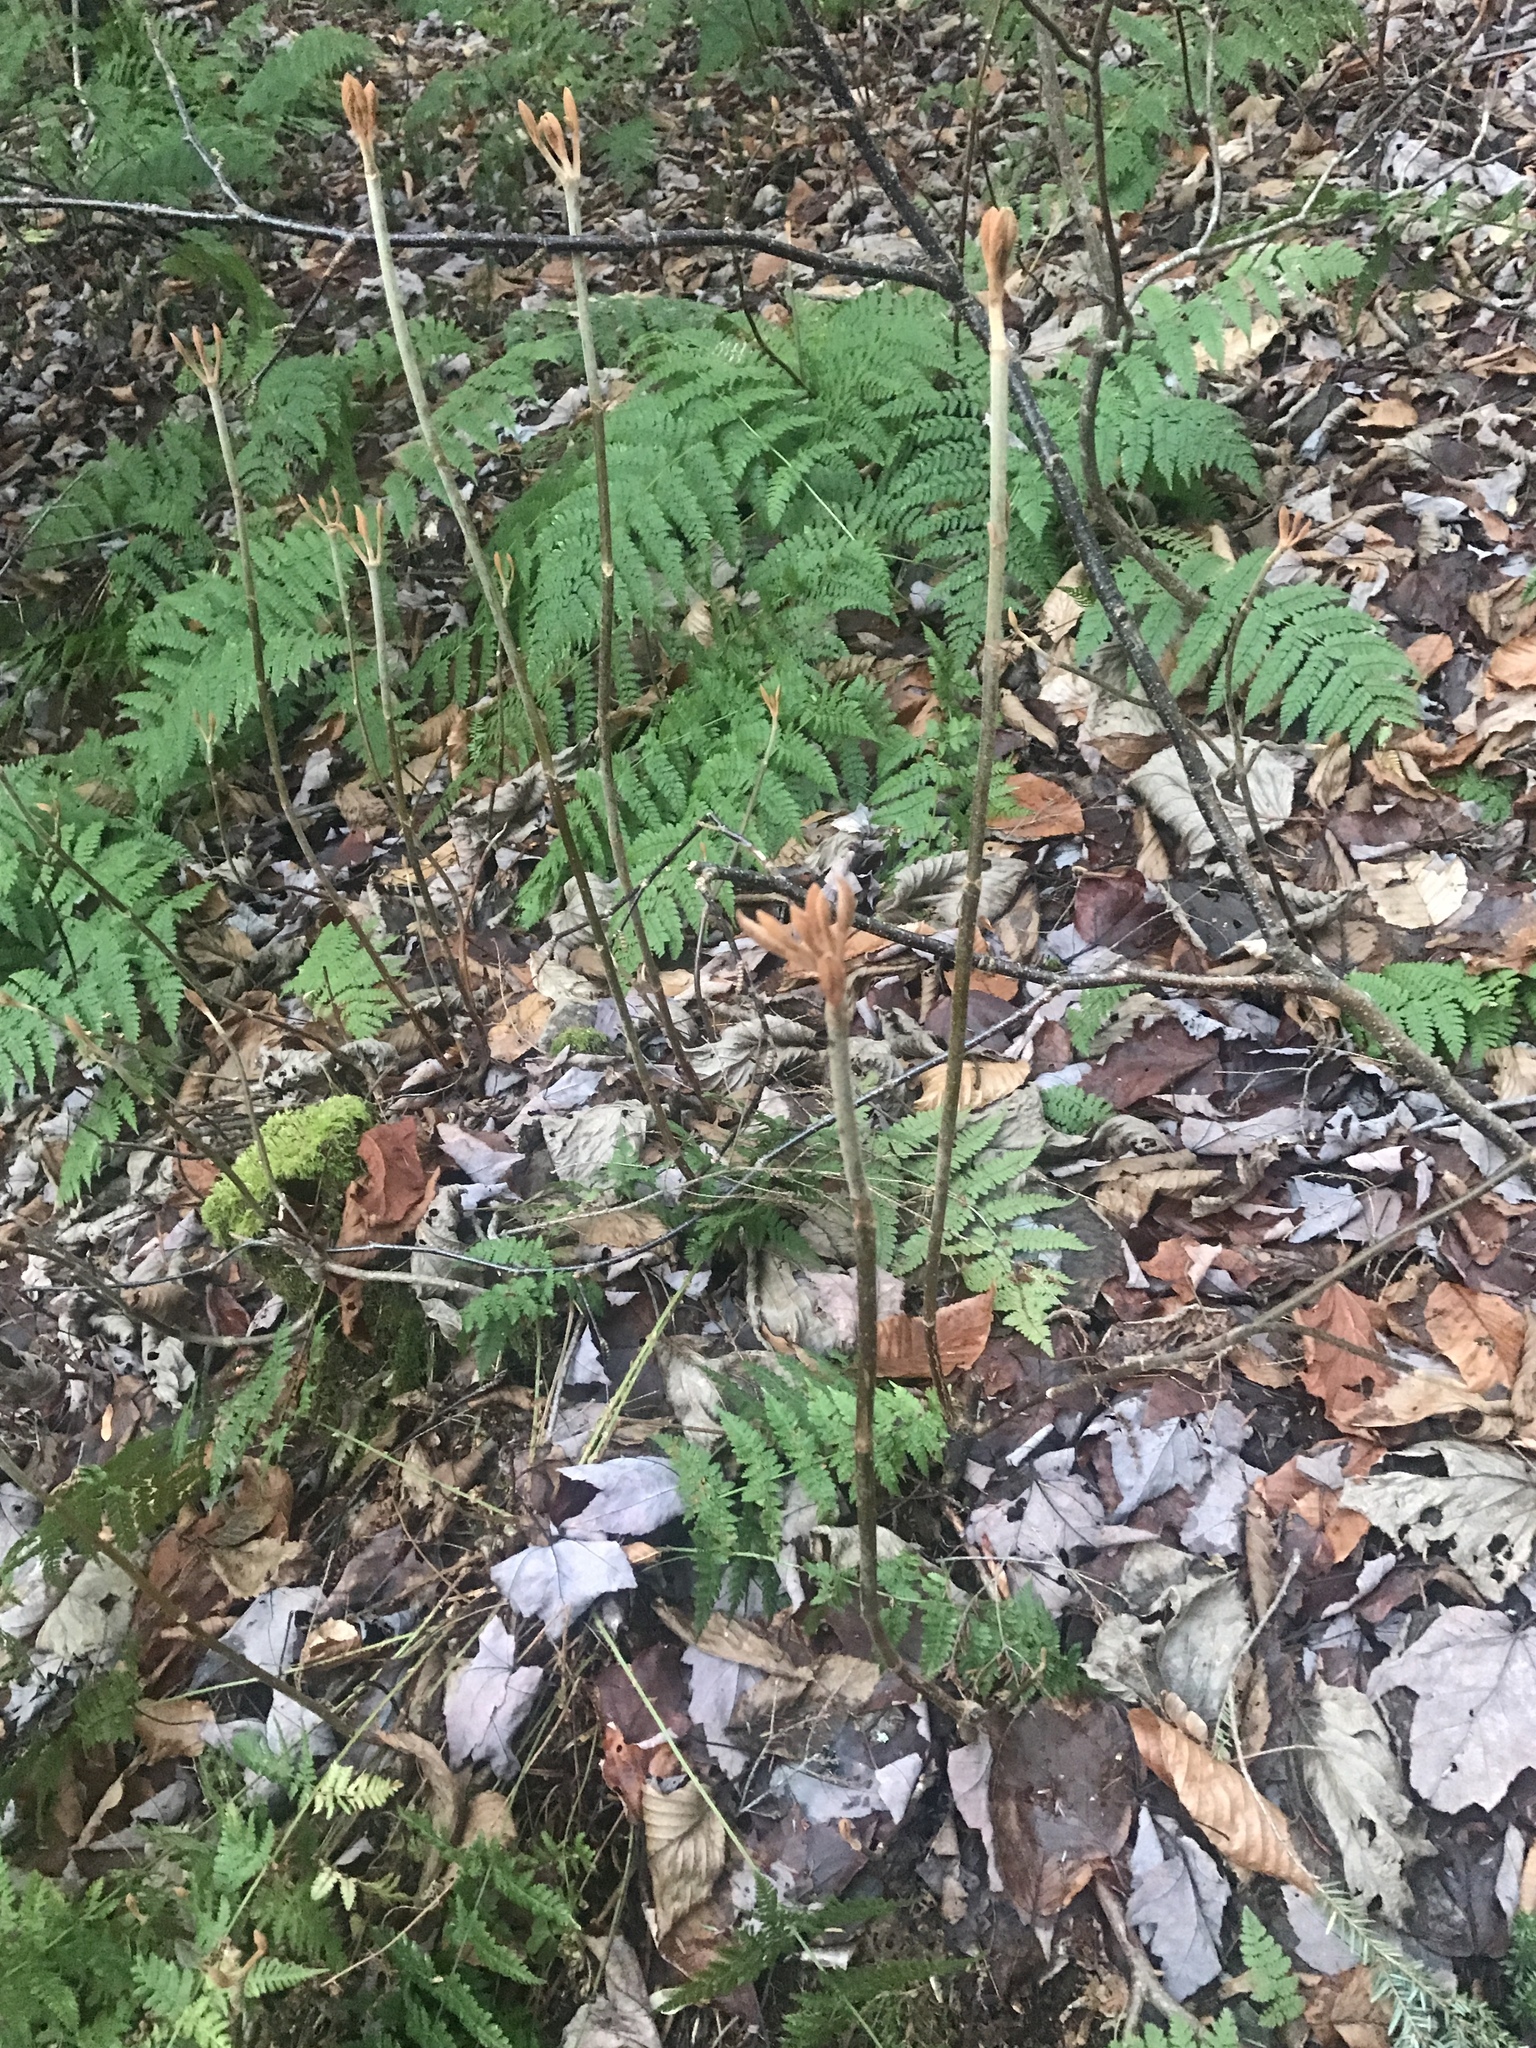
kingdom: Plantae
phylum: Tracheophyta
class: Magnoliopsida
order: Dipsacales
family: Viburnaceae
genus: Viburnum
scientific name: Viburnum lantanoides
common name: Hobblebush
